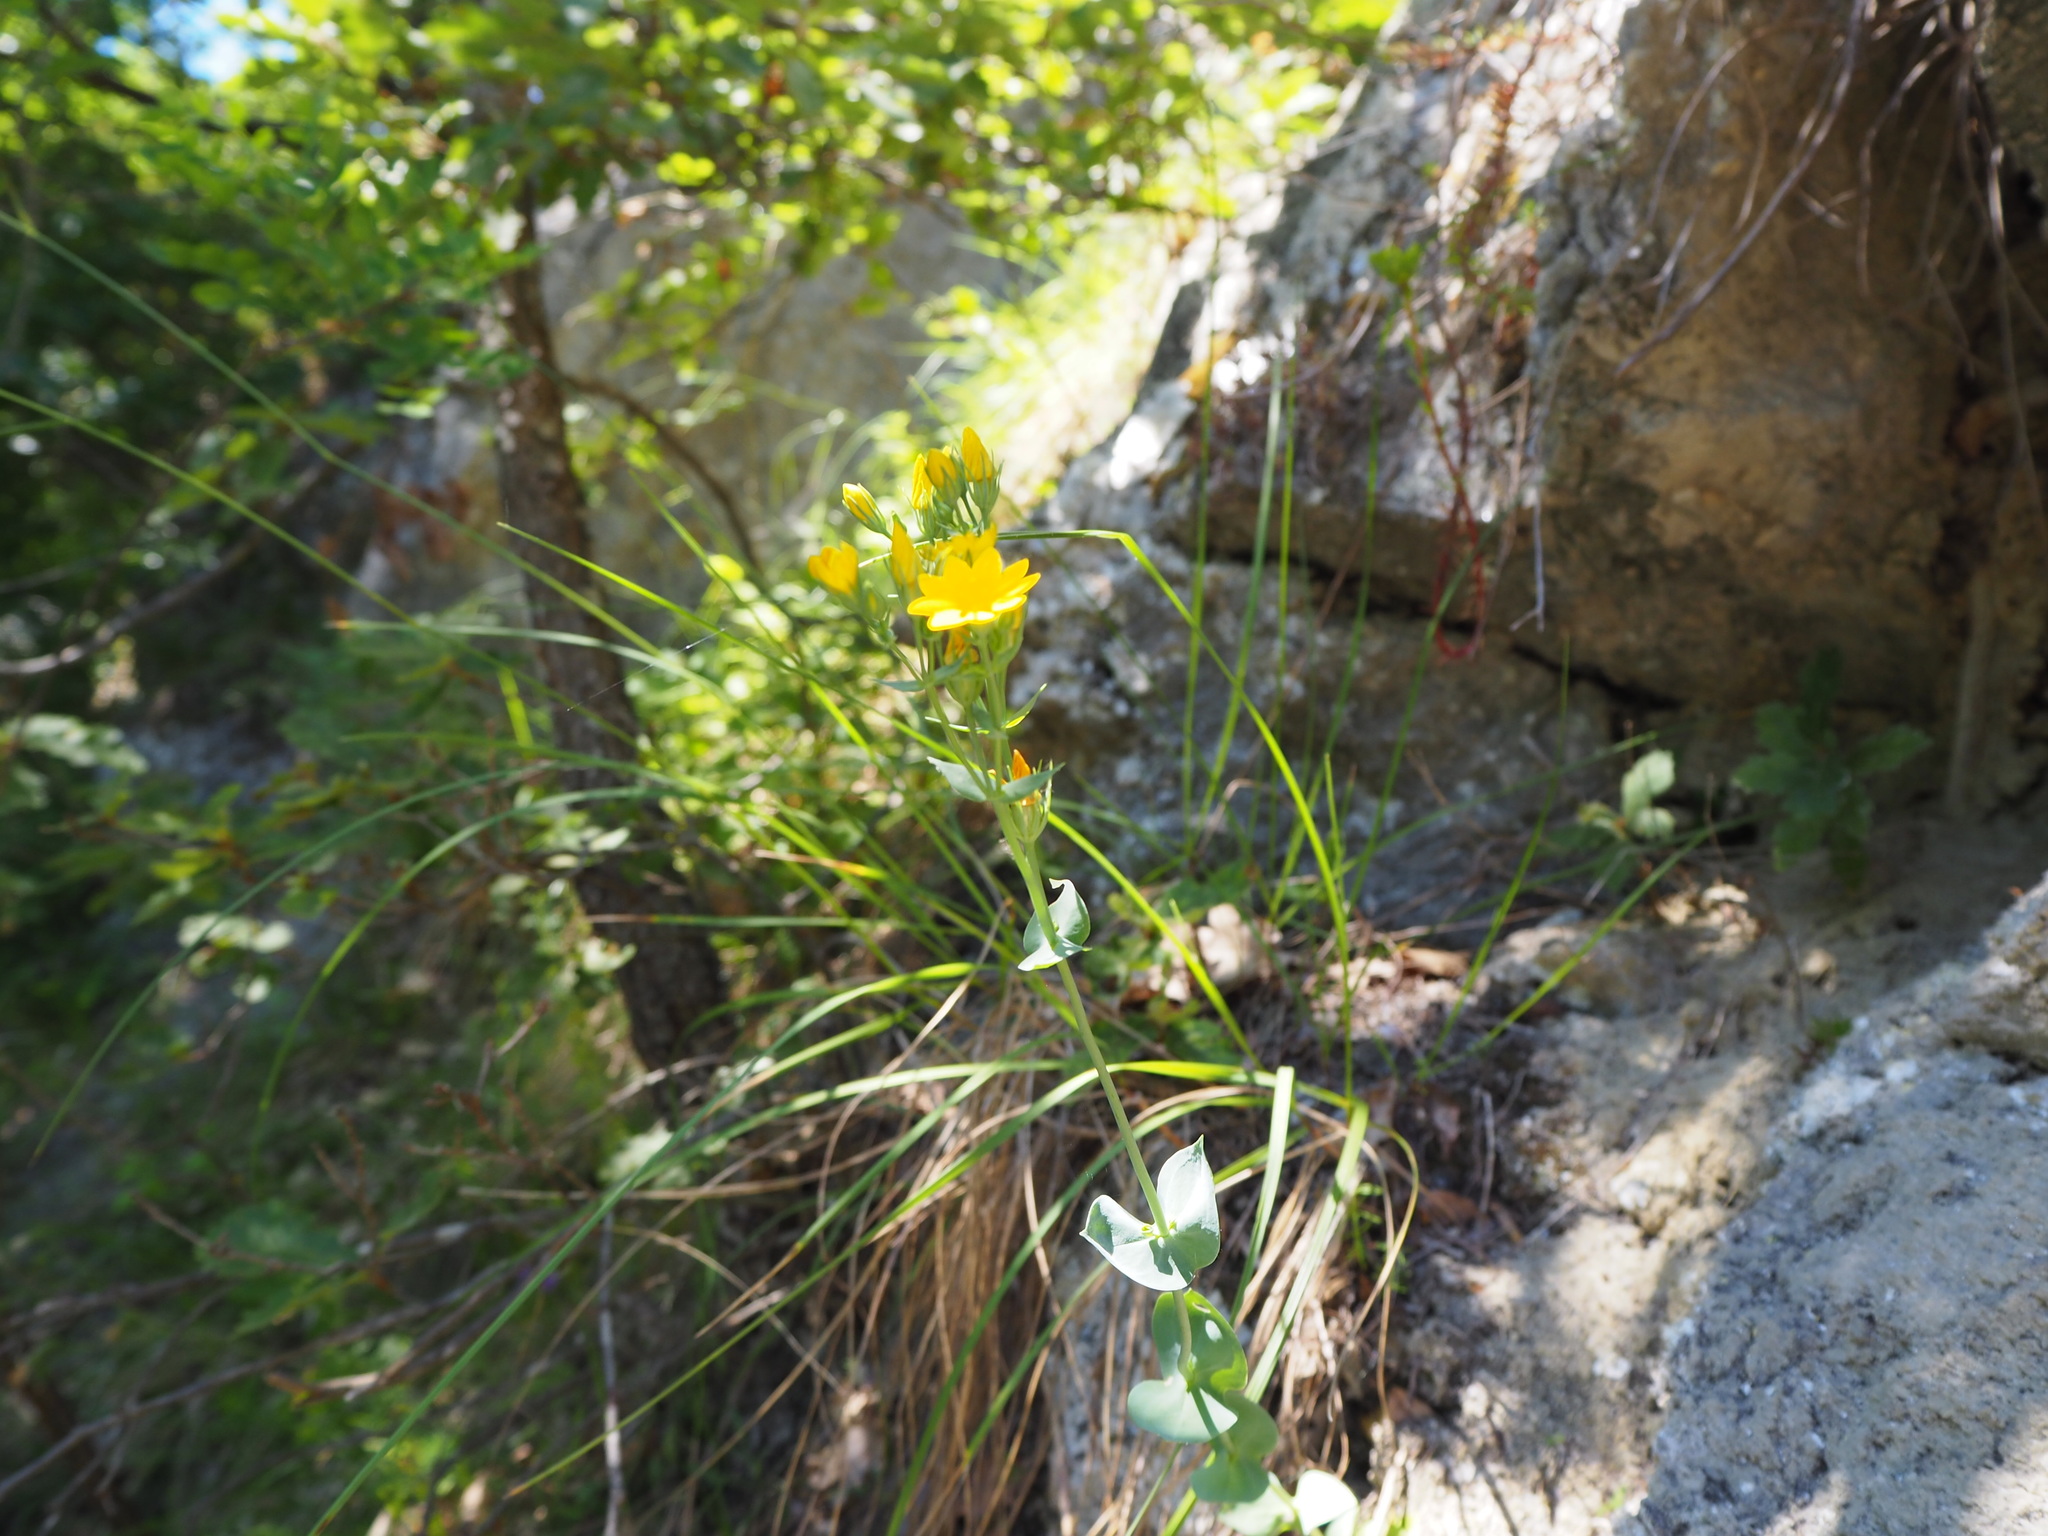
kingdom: Plantae
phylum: Tracheophyta
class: Magnoliopsida
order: Gentianales
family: Gentianaceae
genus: Blackstonia
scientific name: Blackstonia perfoliata
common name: Yellow-wort
